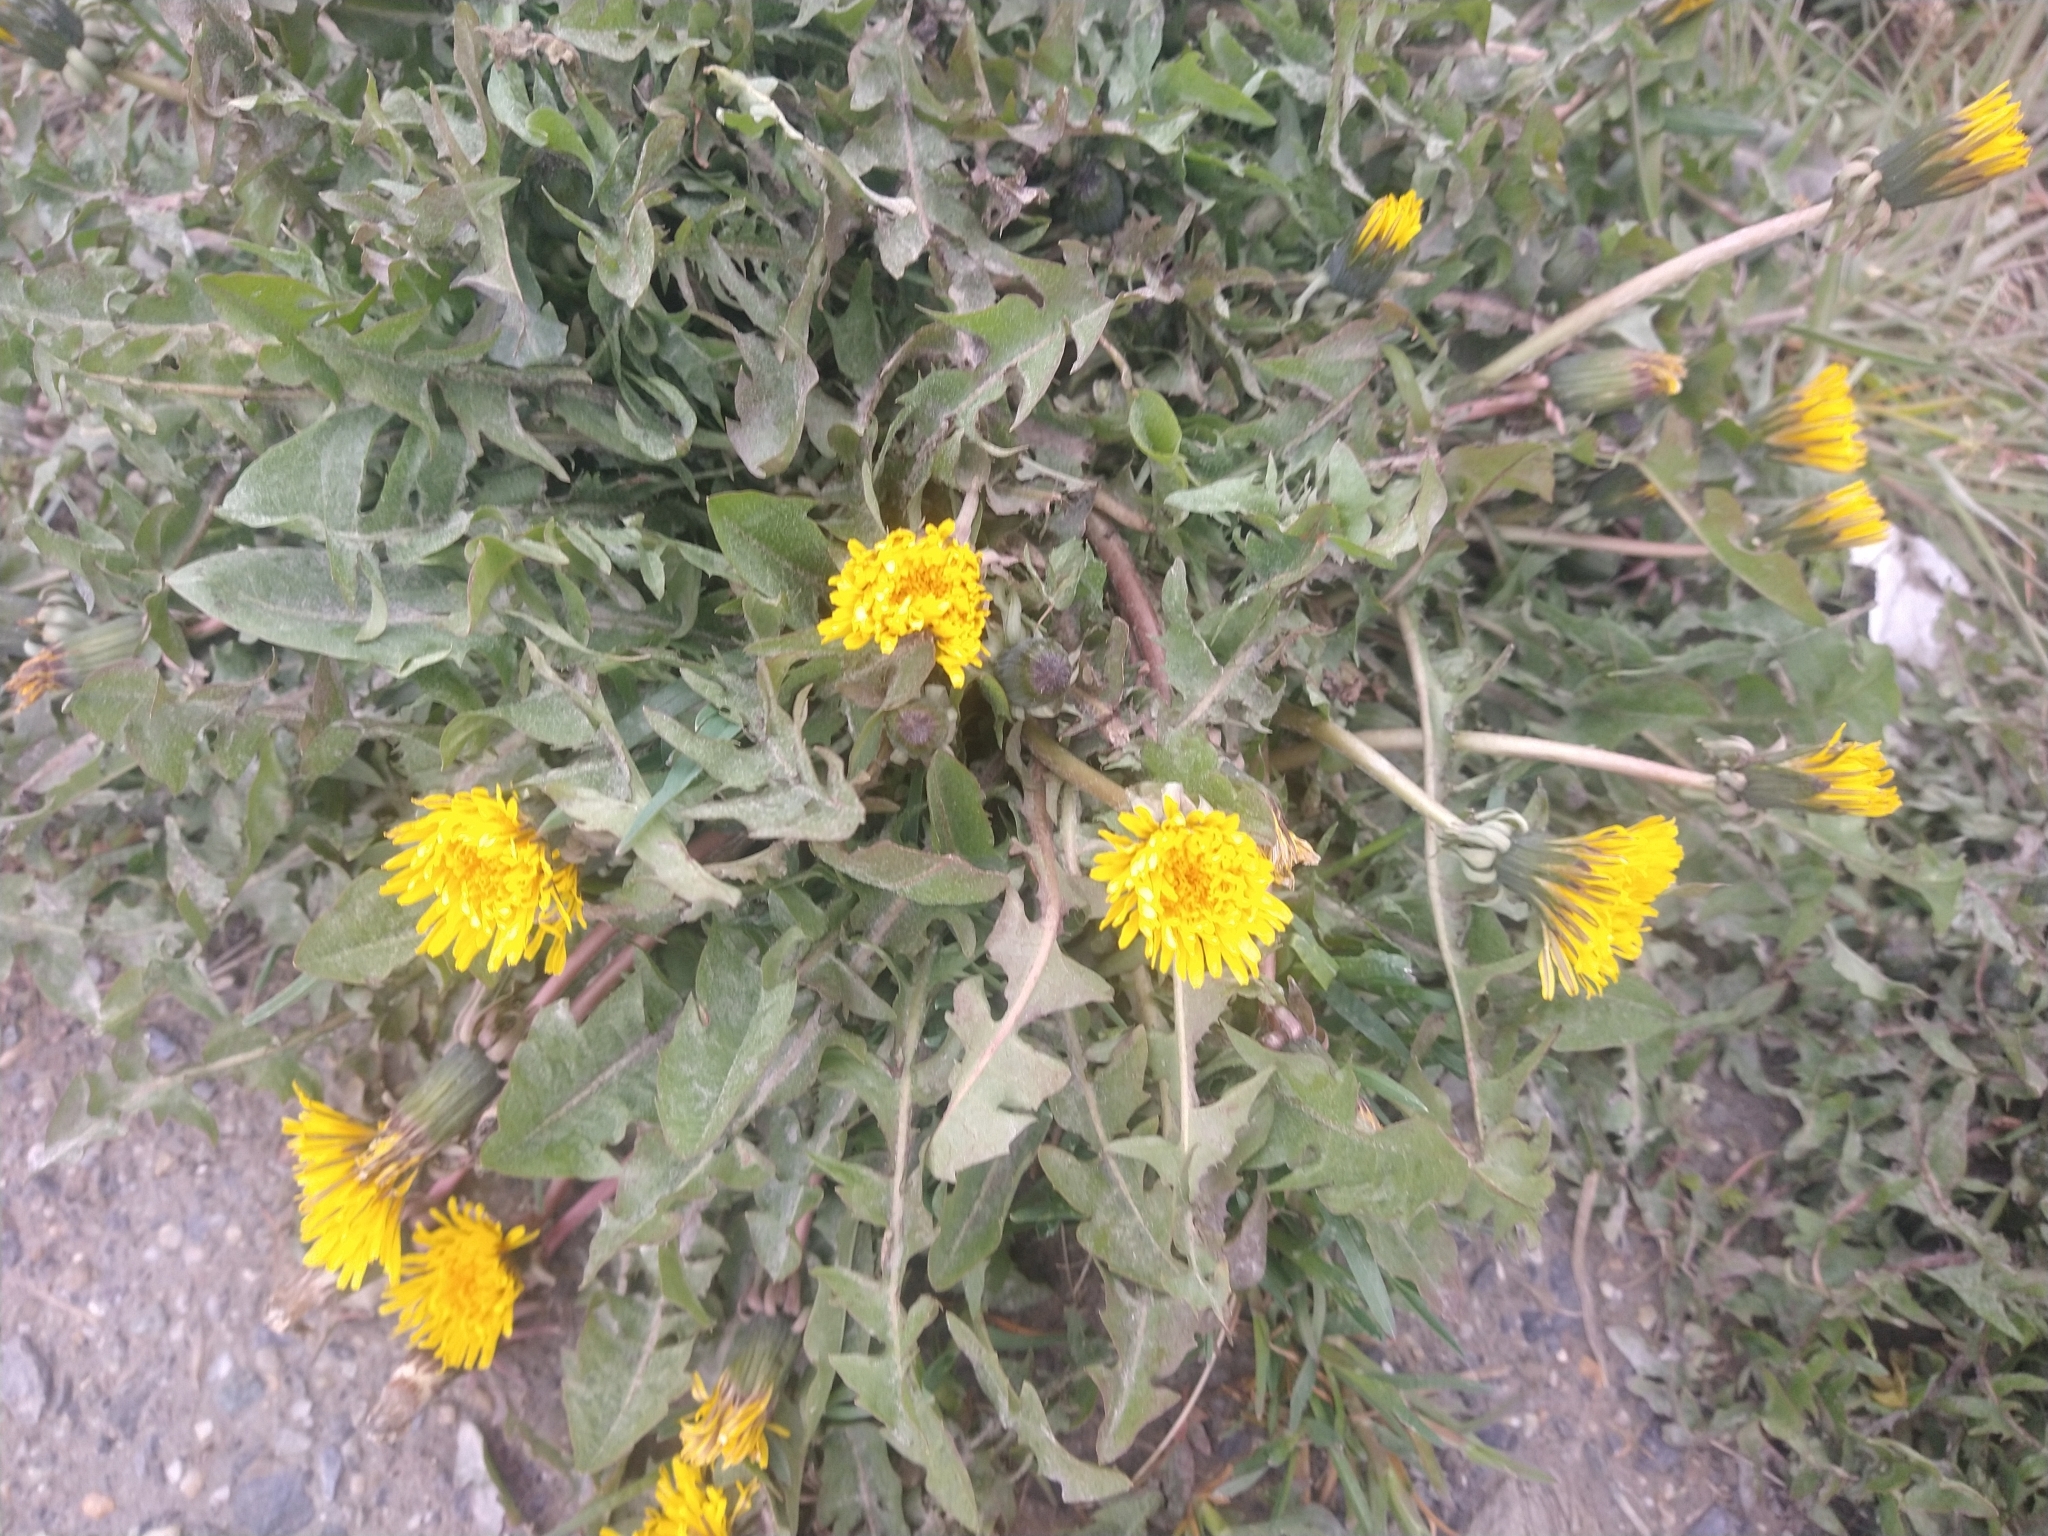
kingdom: Plantae
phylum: Tracheophyta
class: Magnoliopsida
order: Asterales
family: Asteraceae
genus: Taraxacum
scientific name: Taraxacum officinale
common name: Common dandelion
